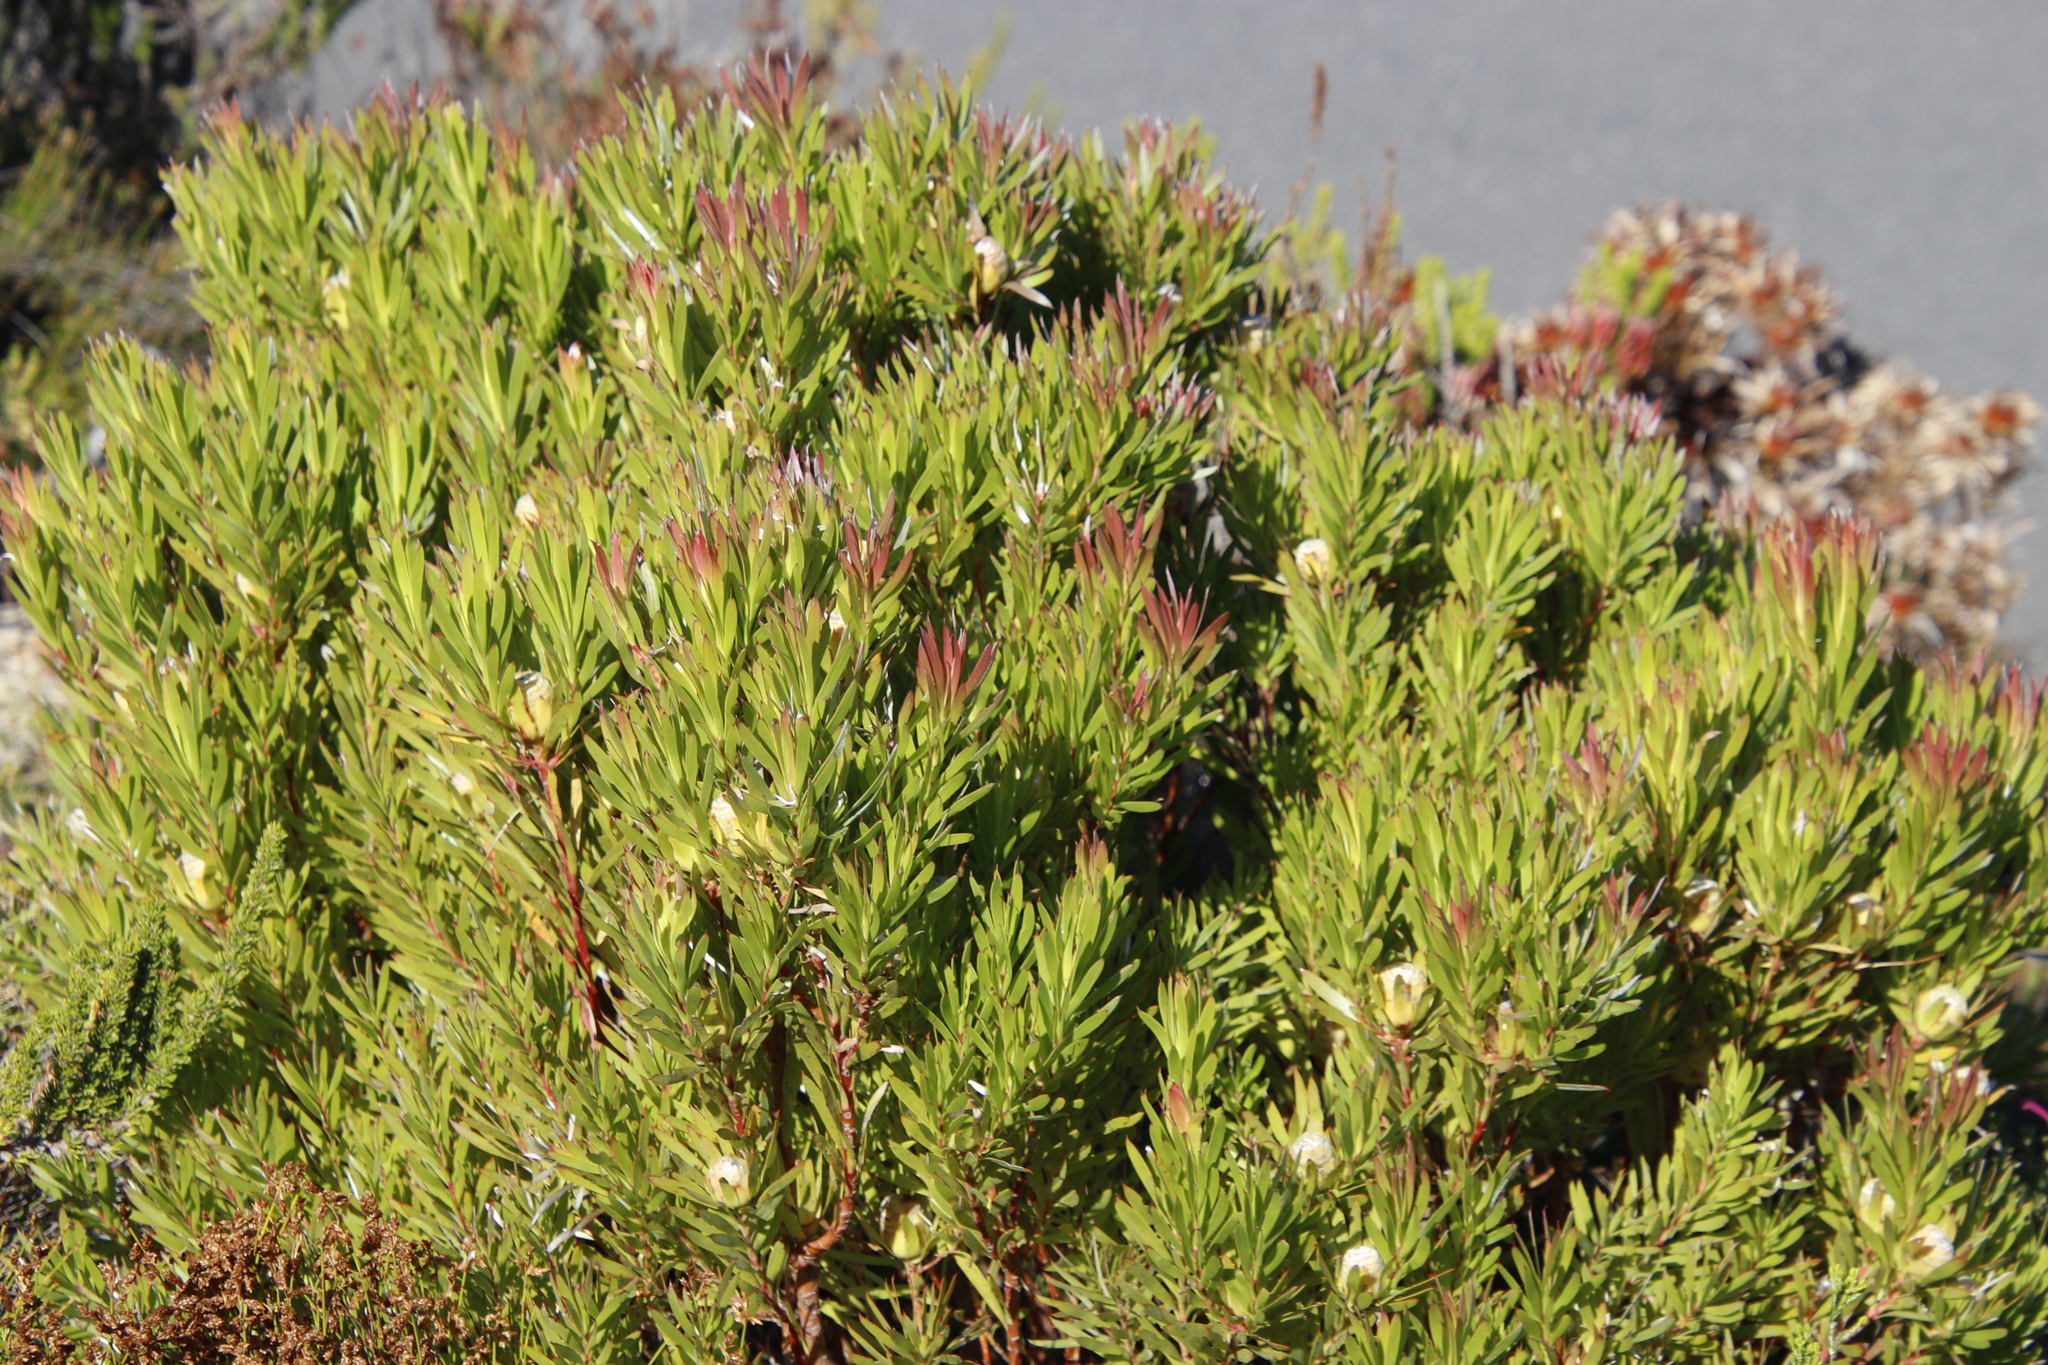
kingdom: Plantae
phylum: Tracheophyta
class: Magnoliopsida
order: Proteales
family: Proteaceae
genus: Leucadendron
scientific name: Leucadendron xanthoconus
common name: Sickle-leaf conebush
